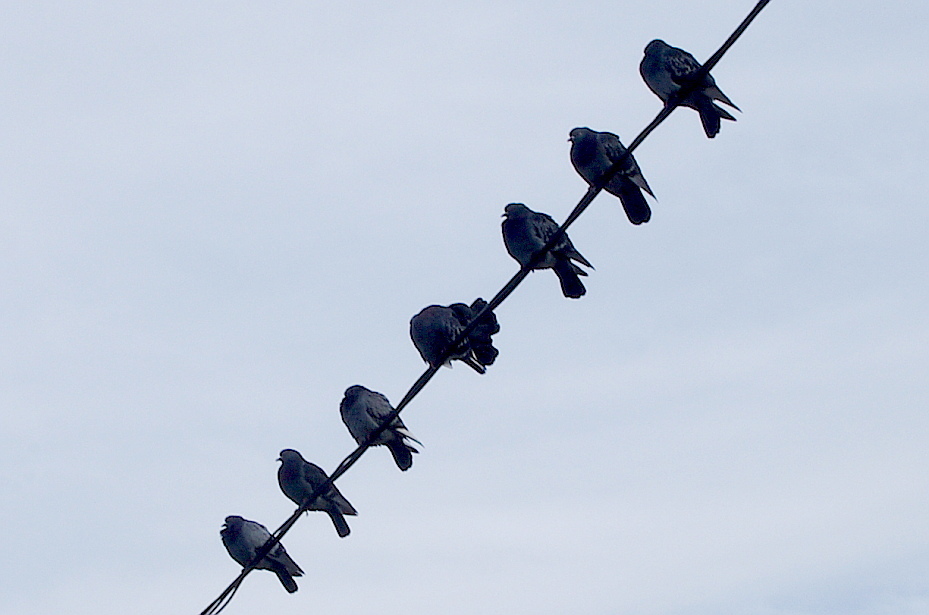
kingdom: Animalia
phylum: Chordata
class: Aves
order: Columbiformes
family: Columbidae
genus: Columba
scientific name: Columba livia
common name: Rock pigeon
